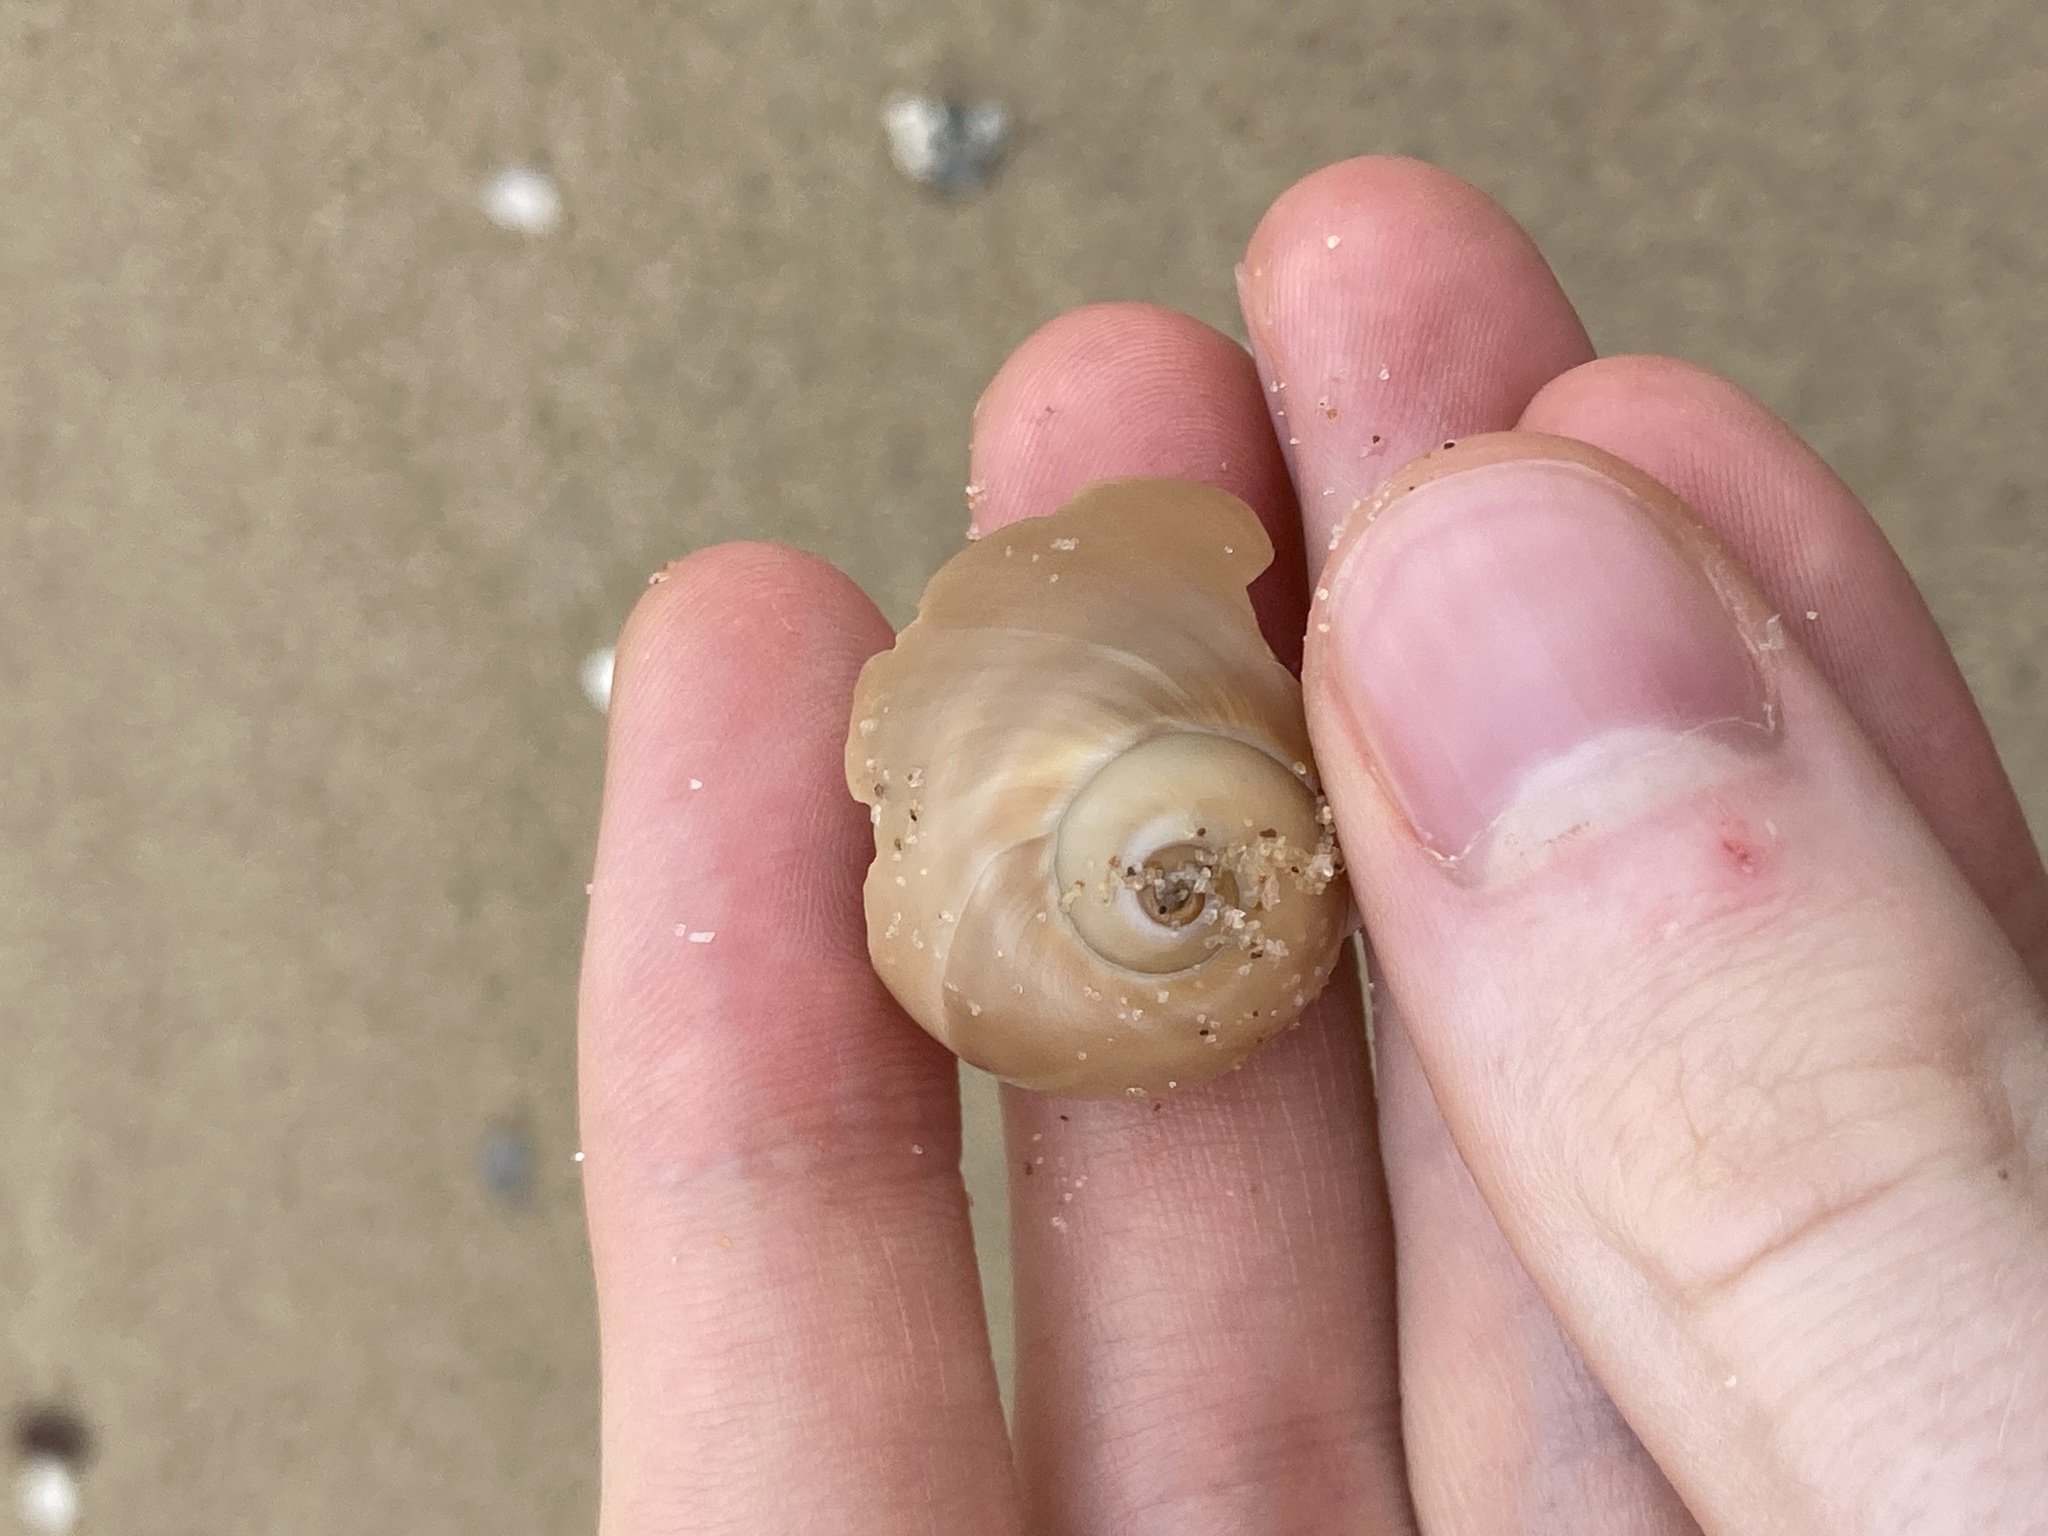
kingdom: Animalia
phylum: Mollusca
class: Gastropoda
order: Littorinimorpha
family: Naticidae
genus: Neverita
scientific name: Neverita didyma
